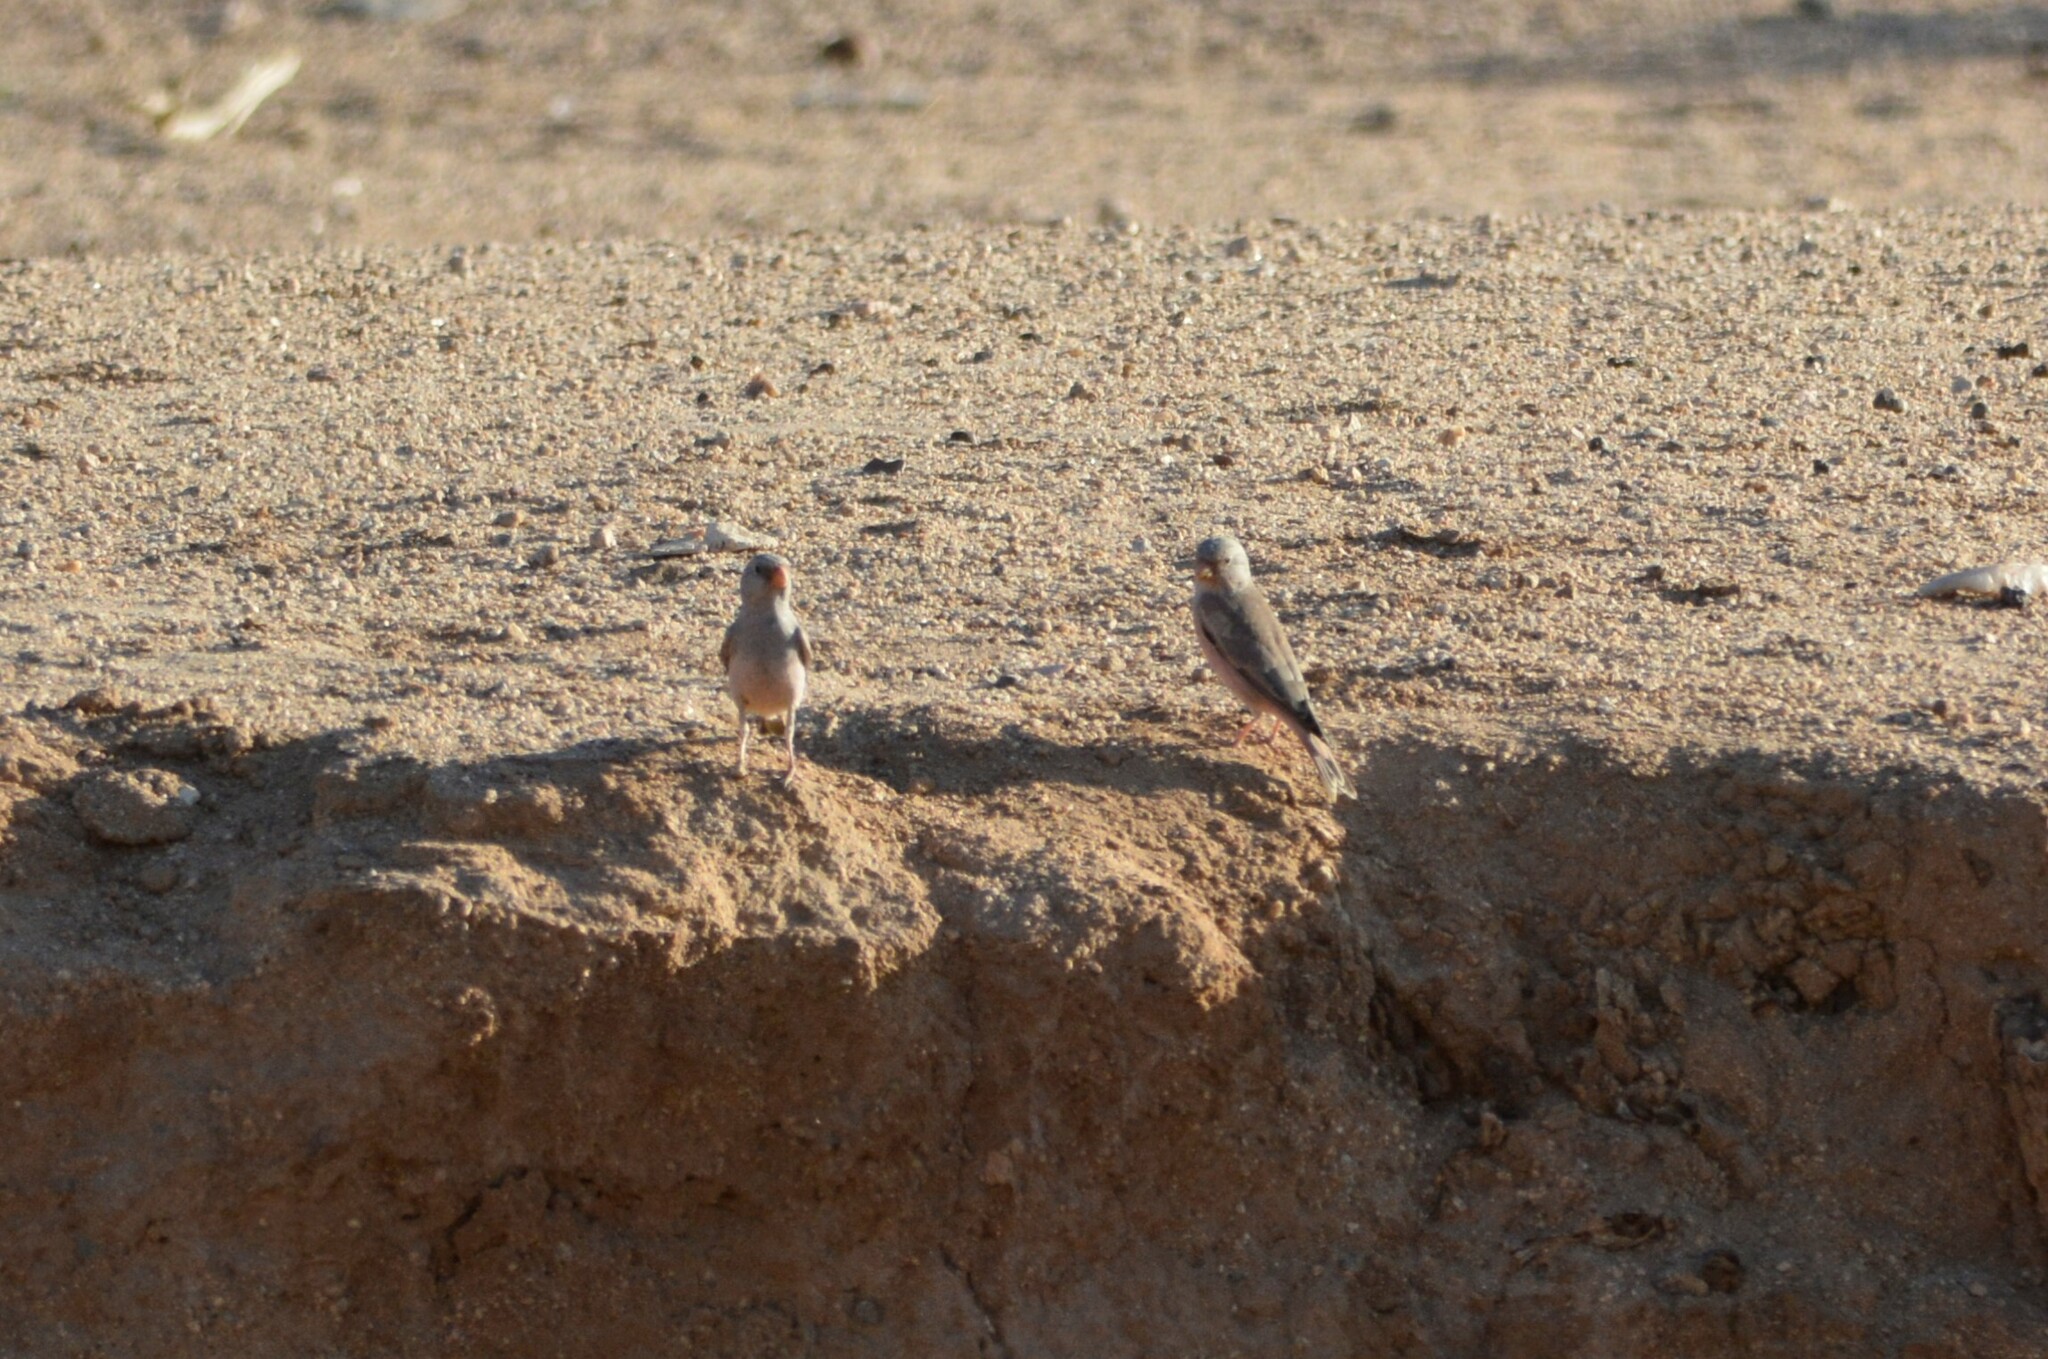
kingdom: Animalia
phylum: Chordata
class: Aves
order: Passeriformes
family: Fringillidae
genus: Bucanetes
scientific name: Bucanetes githagineus
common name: Trumpeter finch
